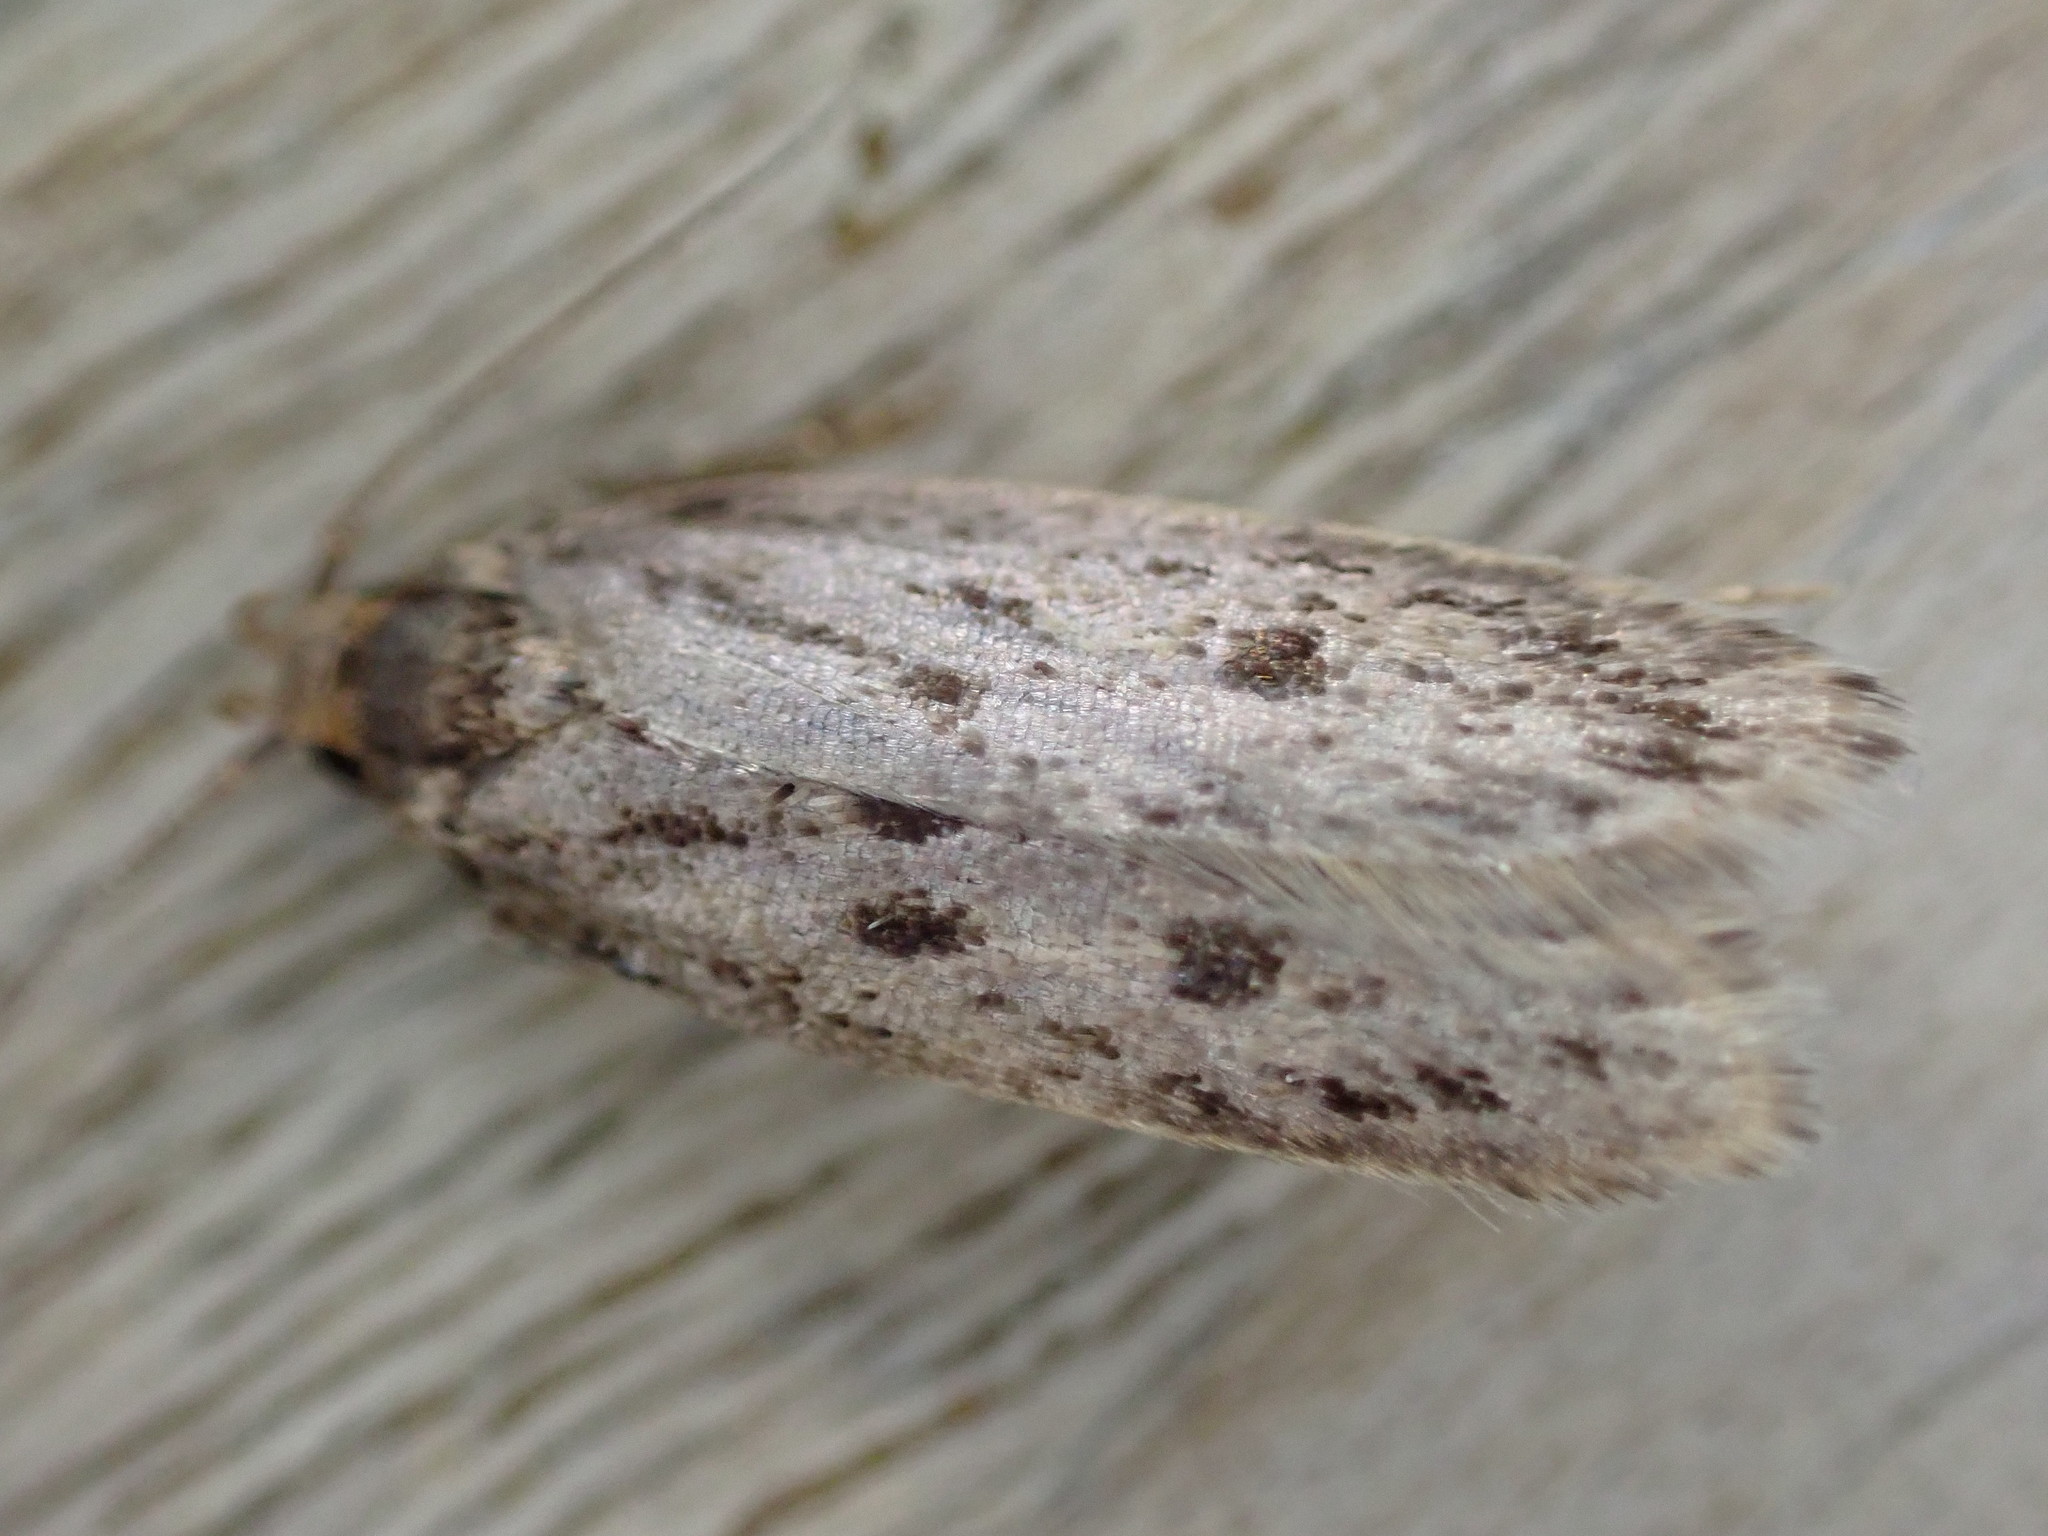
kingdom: Animalia
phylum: Arthropoda
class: Insecta
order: Lepidoptera
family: Oecophoridae
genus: Hofmannophila
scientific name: Hofmannophila pseudospretella
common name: Brown house moth
